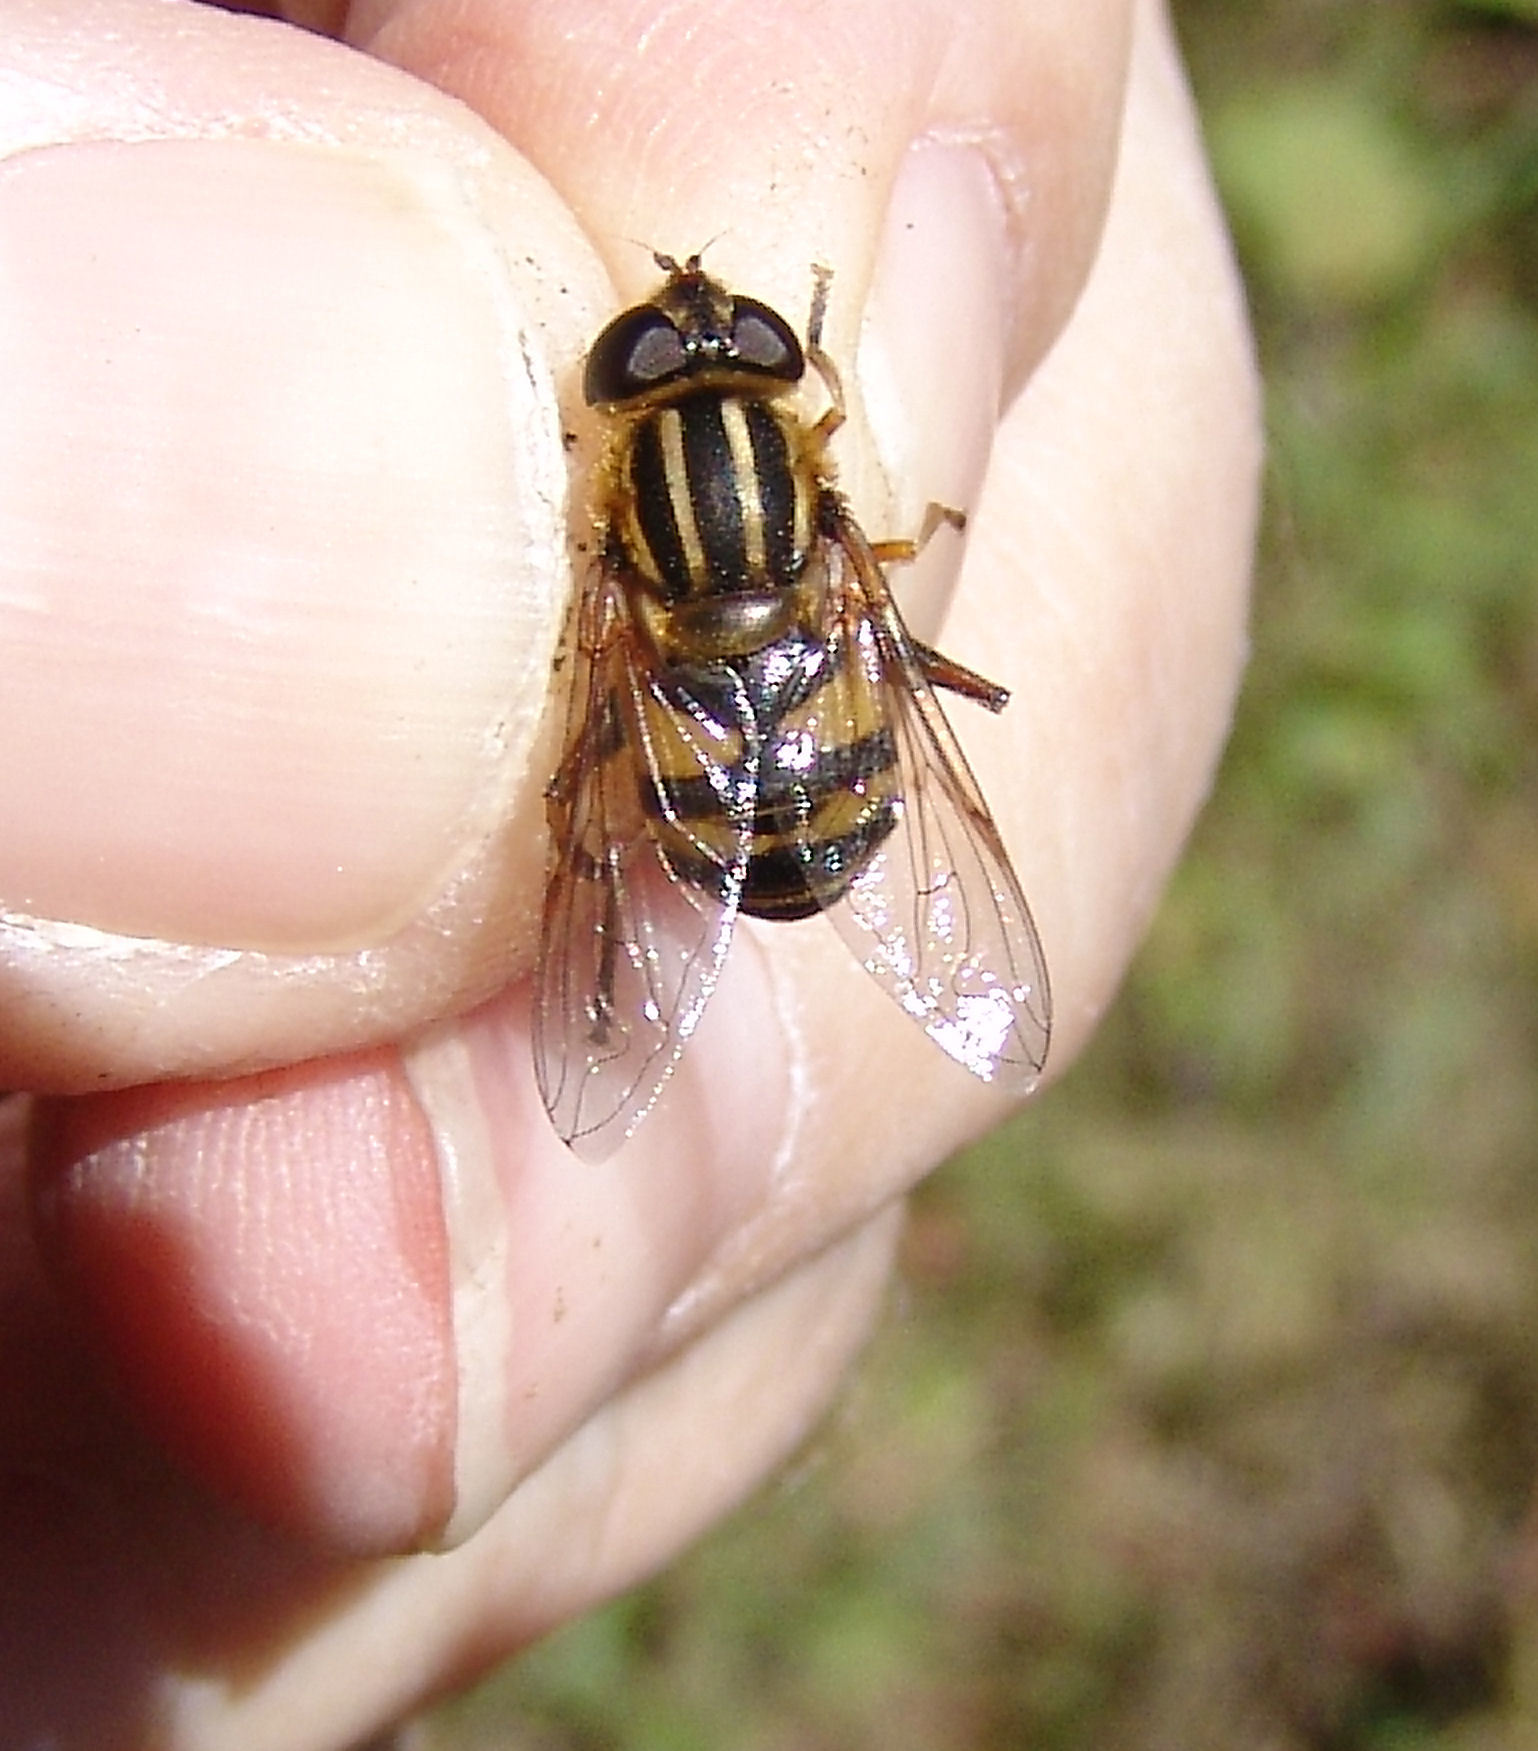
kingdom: Animalia
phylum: Arthropoda
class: Insecta
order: Diptera
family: Syrphidae
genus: Helophilus
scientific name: Helophilus fasciatus
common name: Narrow-headed marsh fly
